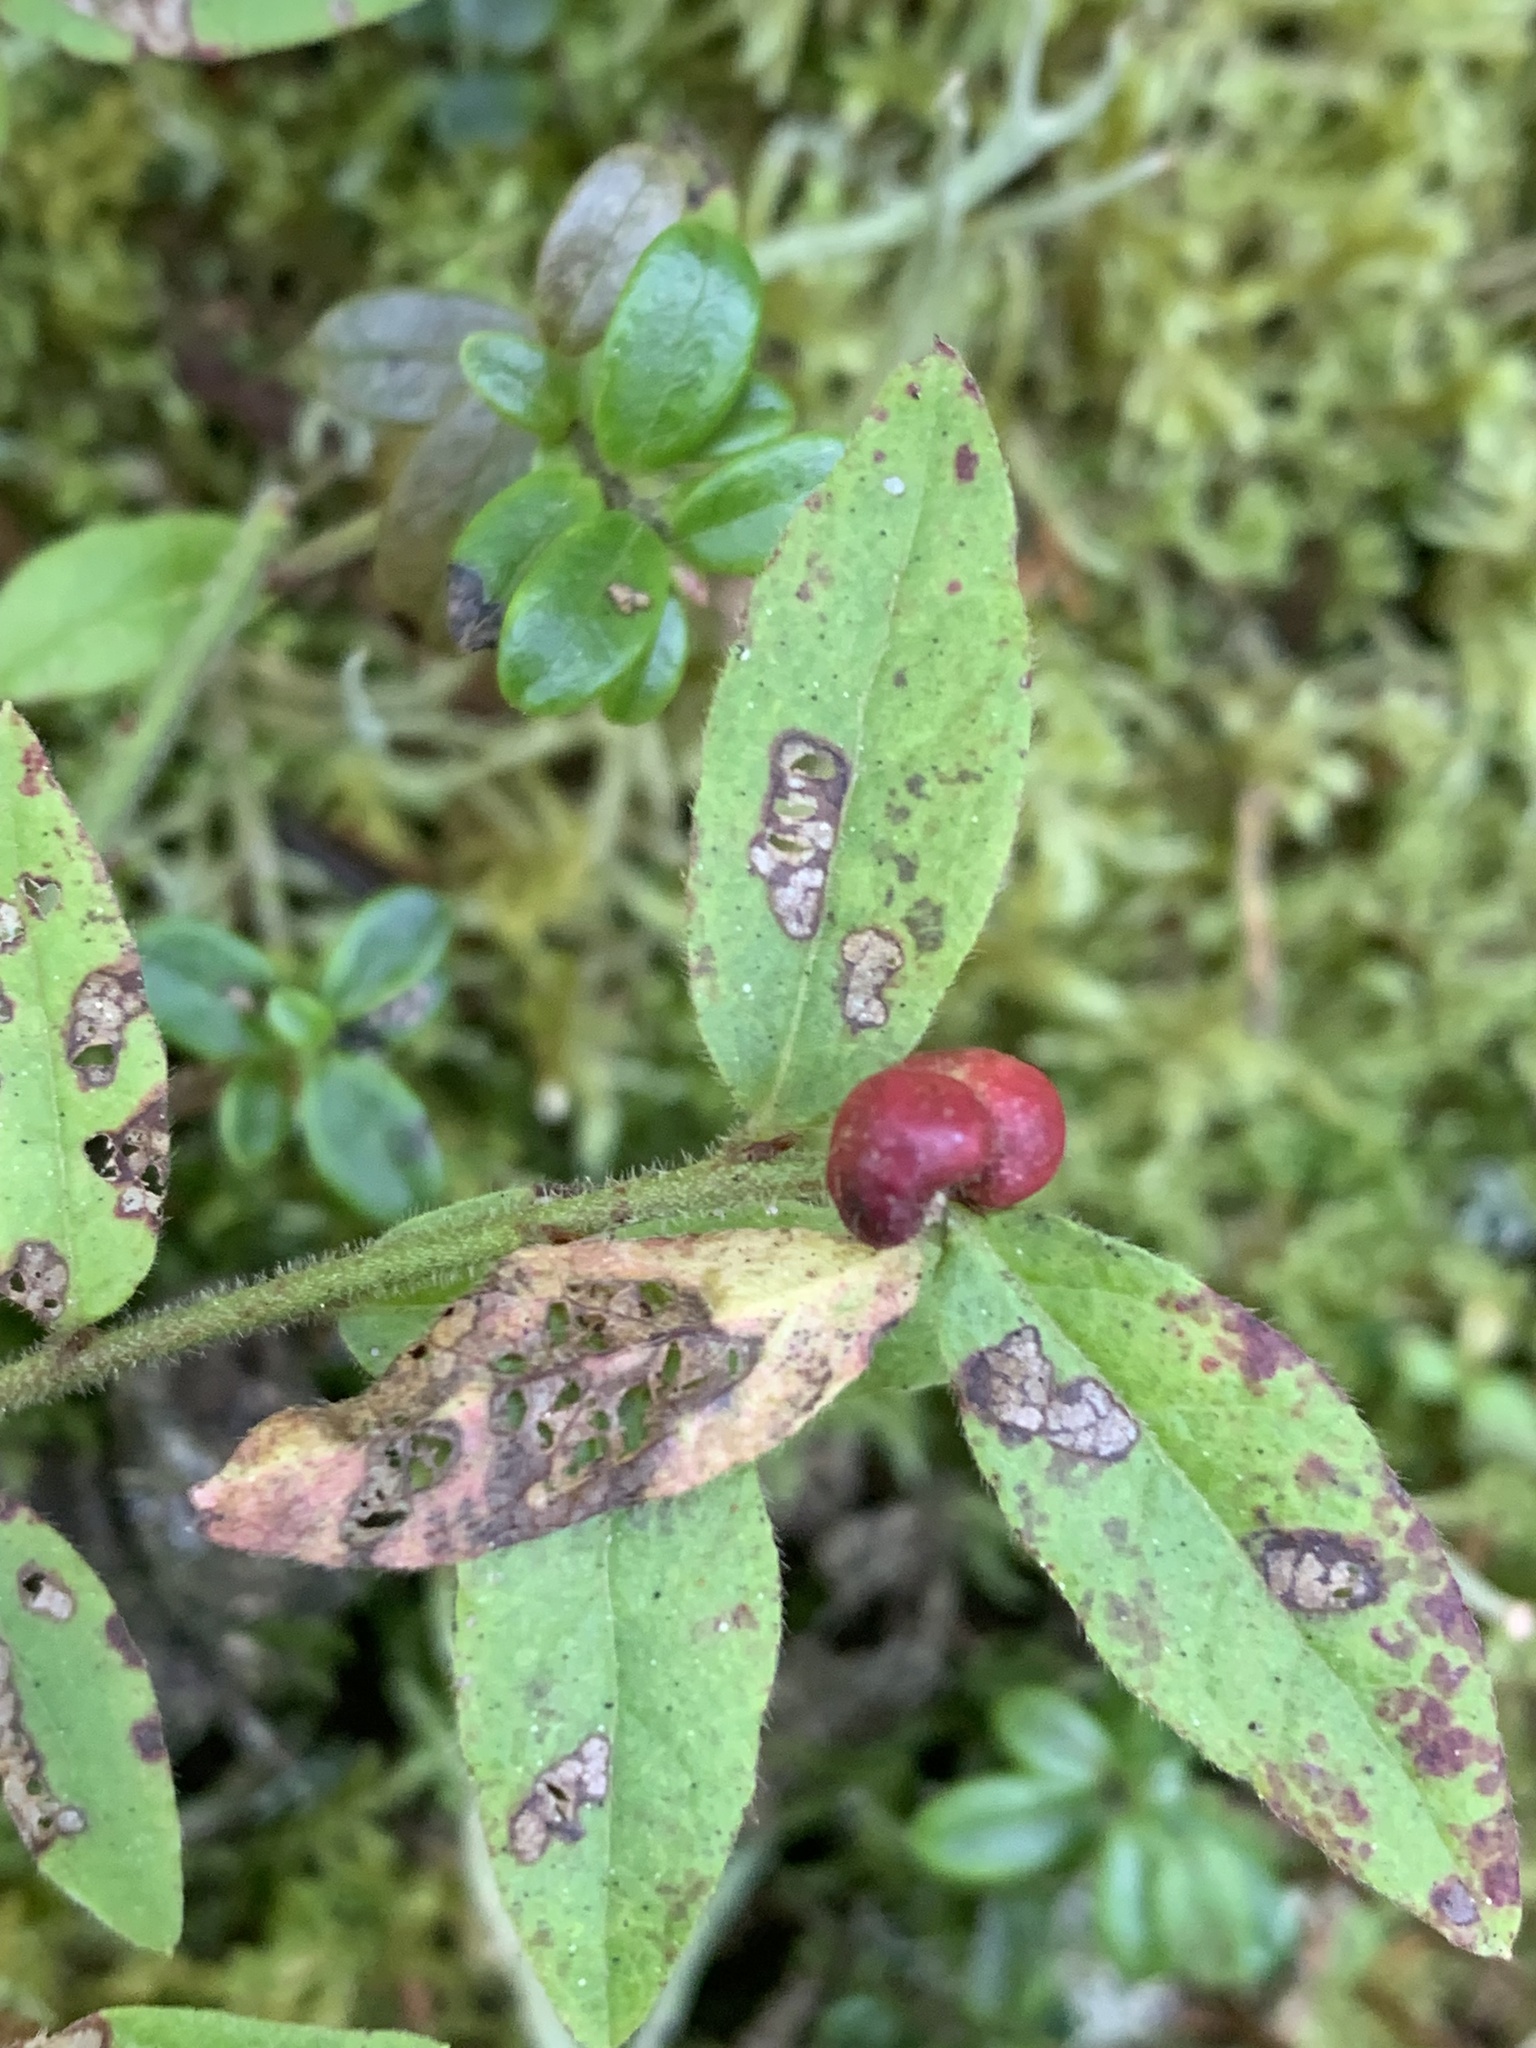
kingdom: Animalia
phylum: Arthropoda
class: Insecta
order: Hymenoptera
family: Pteromalidae
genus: Hemadas
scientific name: Hemadas nubilipennis
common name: Blueberry stem gall wasp
